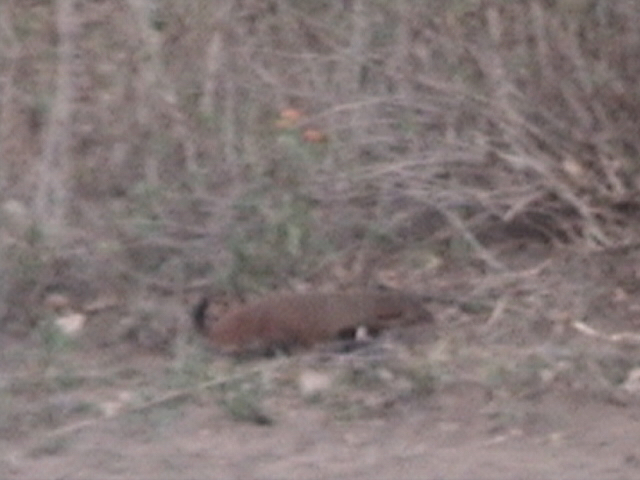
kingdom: Animalia
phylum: Chordata
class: Mammalia
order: Carnivora
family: Herpestidae
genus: Herpestes
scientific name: Herpestes vitticollis
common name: Stripe-necked mongoose
